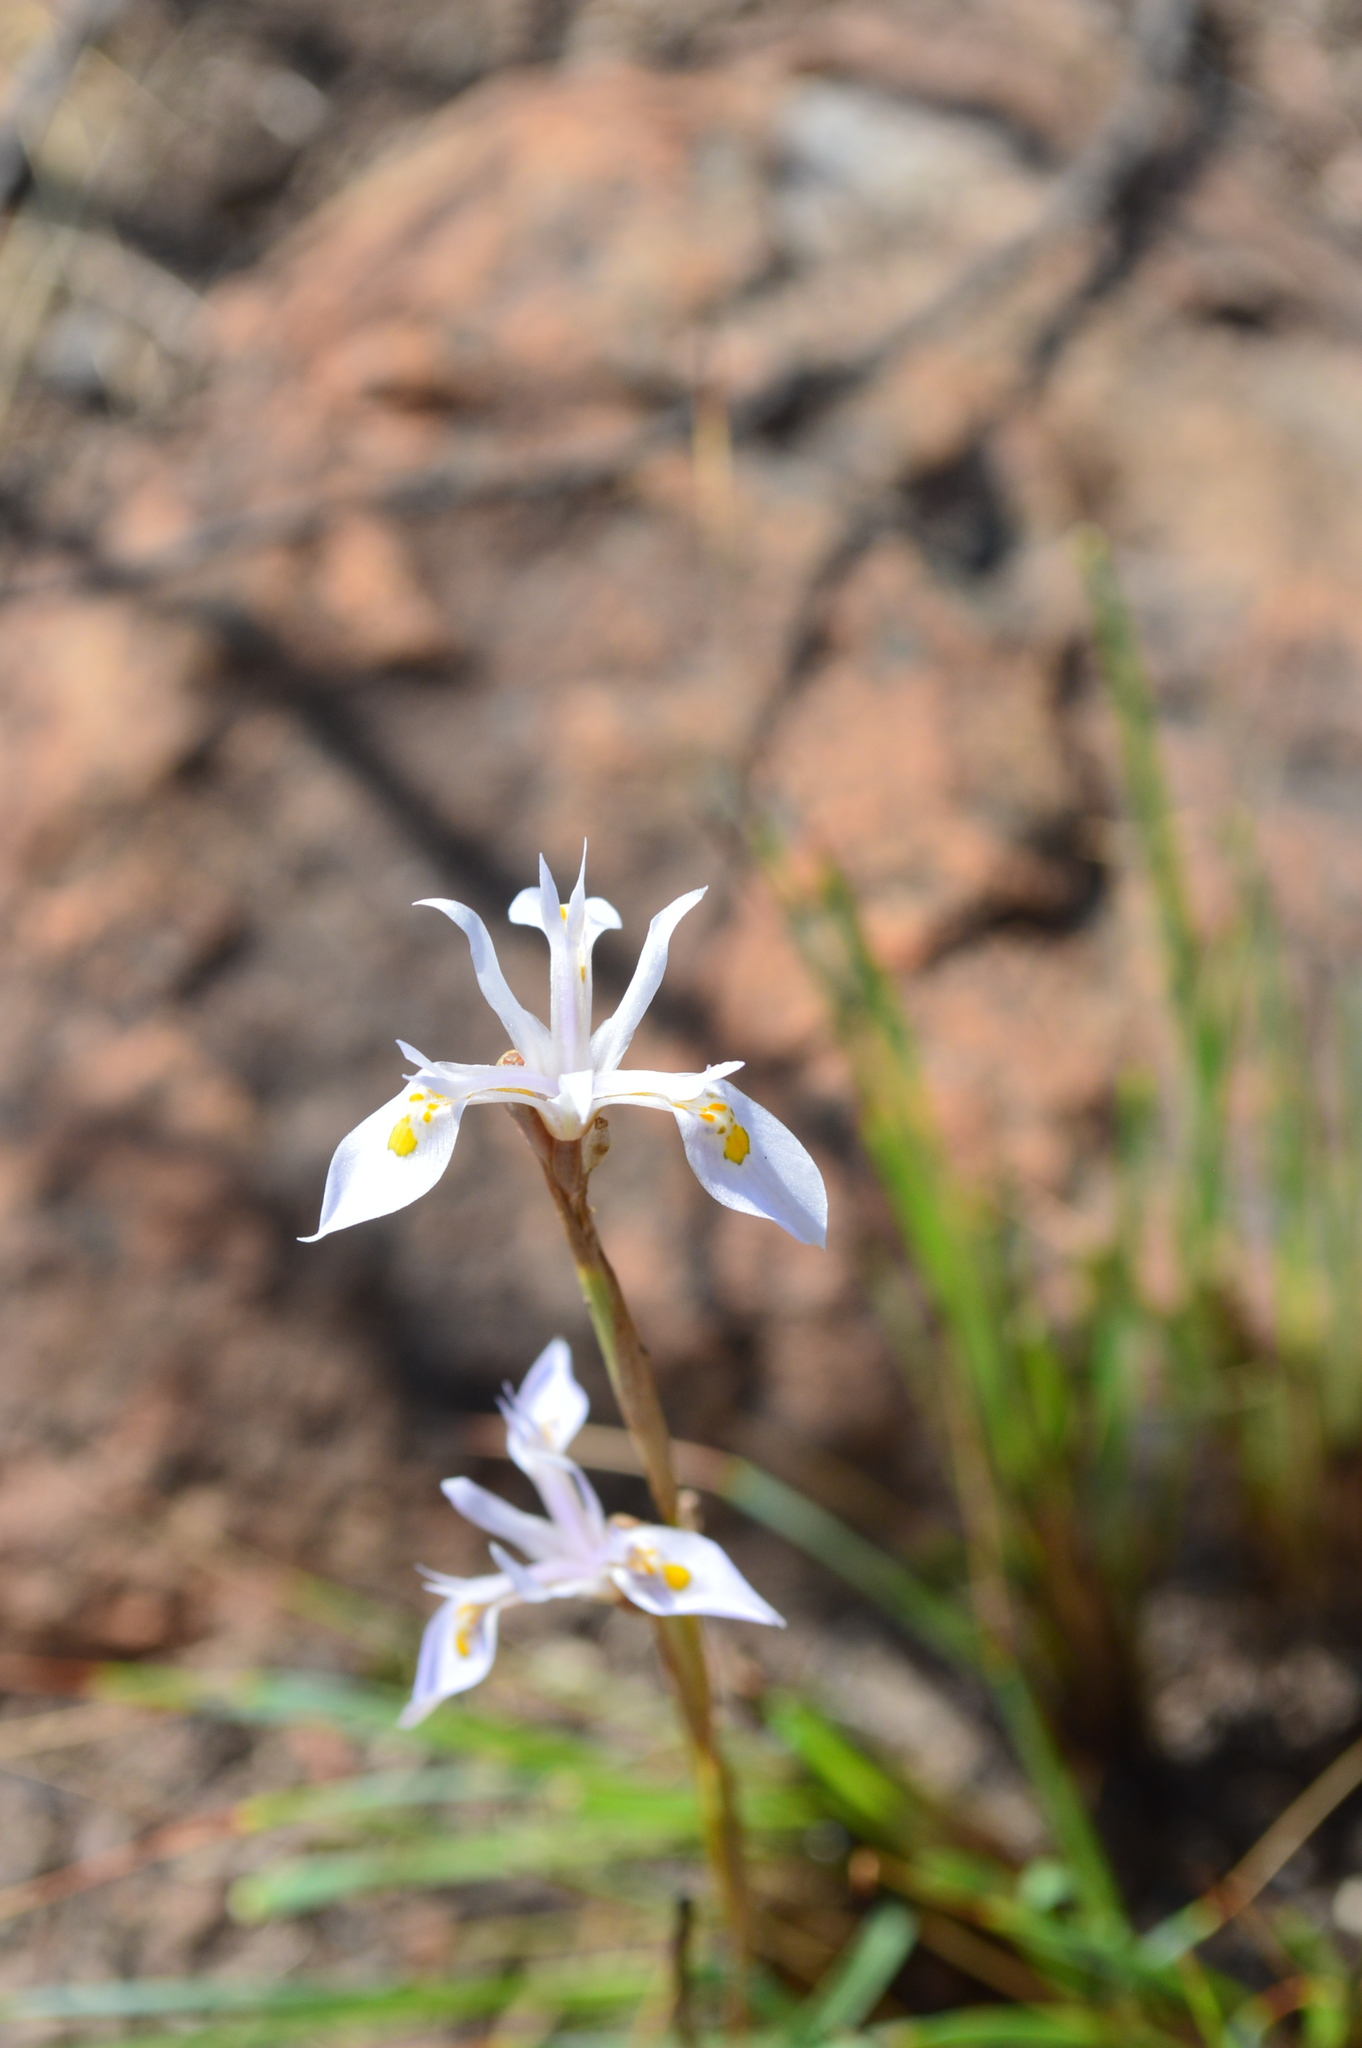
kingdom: Plantae
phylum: Tracheophyta
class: Liliopsida
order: Asparagales
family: Iridaceae
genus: Moraea
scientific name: Moraea stricta
